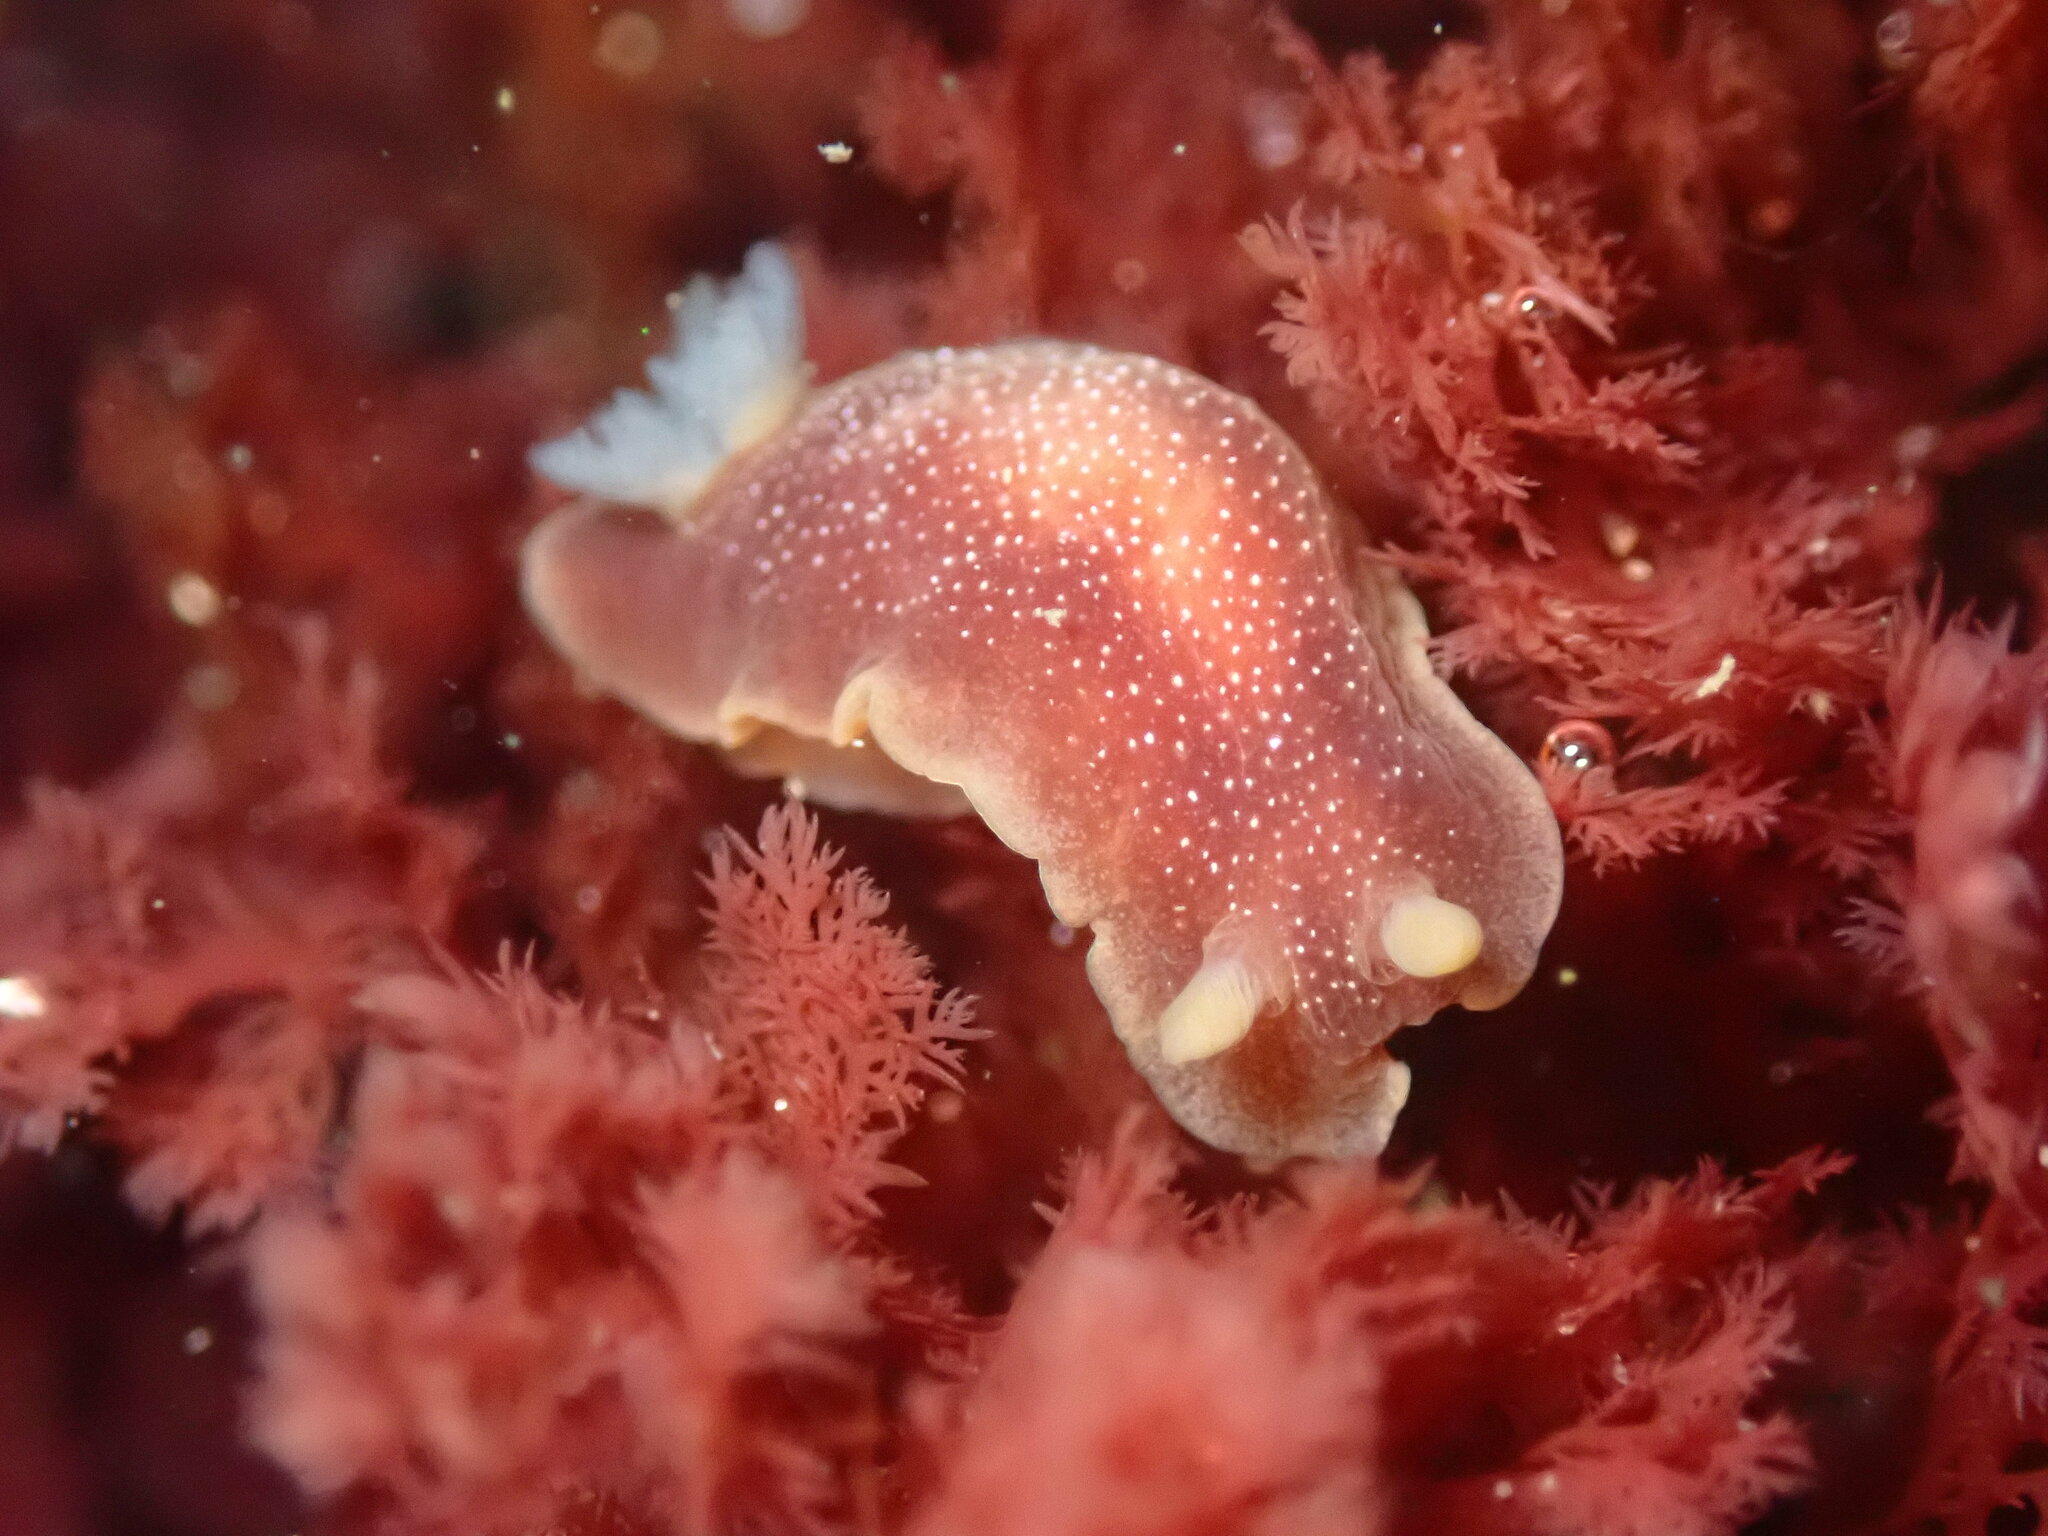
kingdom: Animalia
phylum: Mollusca
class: Gastropoda
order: Nudibranchia
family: Dendrodorididae
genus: Doriopsilla
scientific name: Doriopsilla albopunctata
